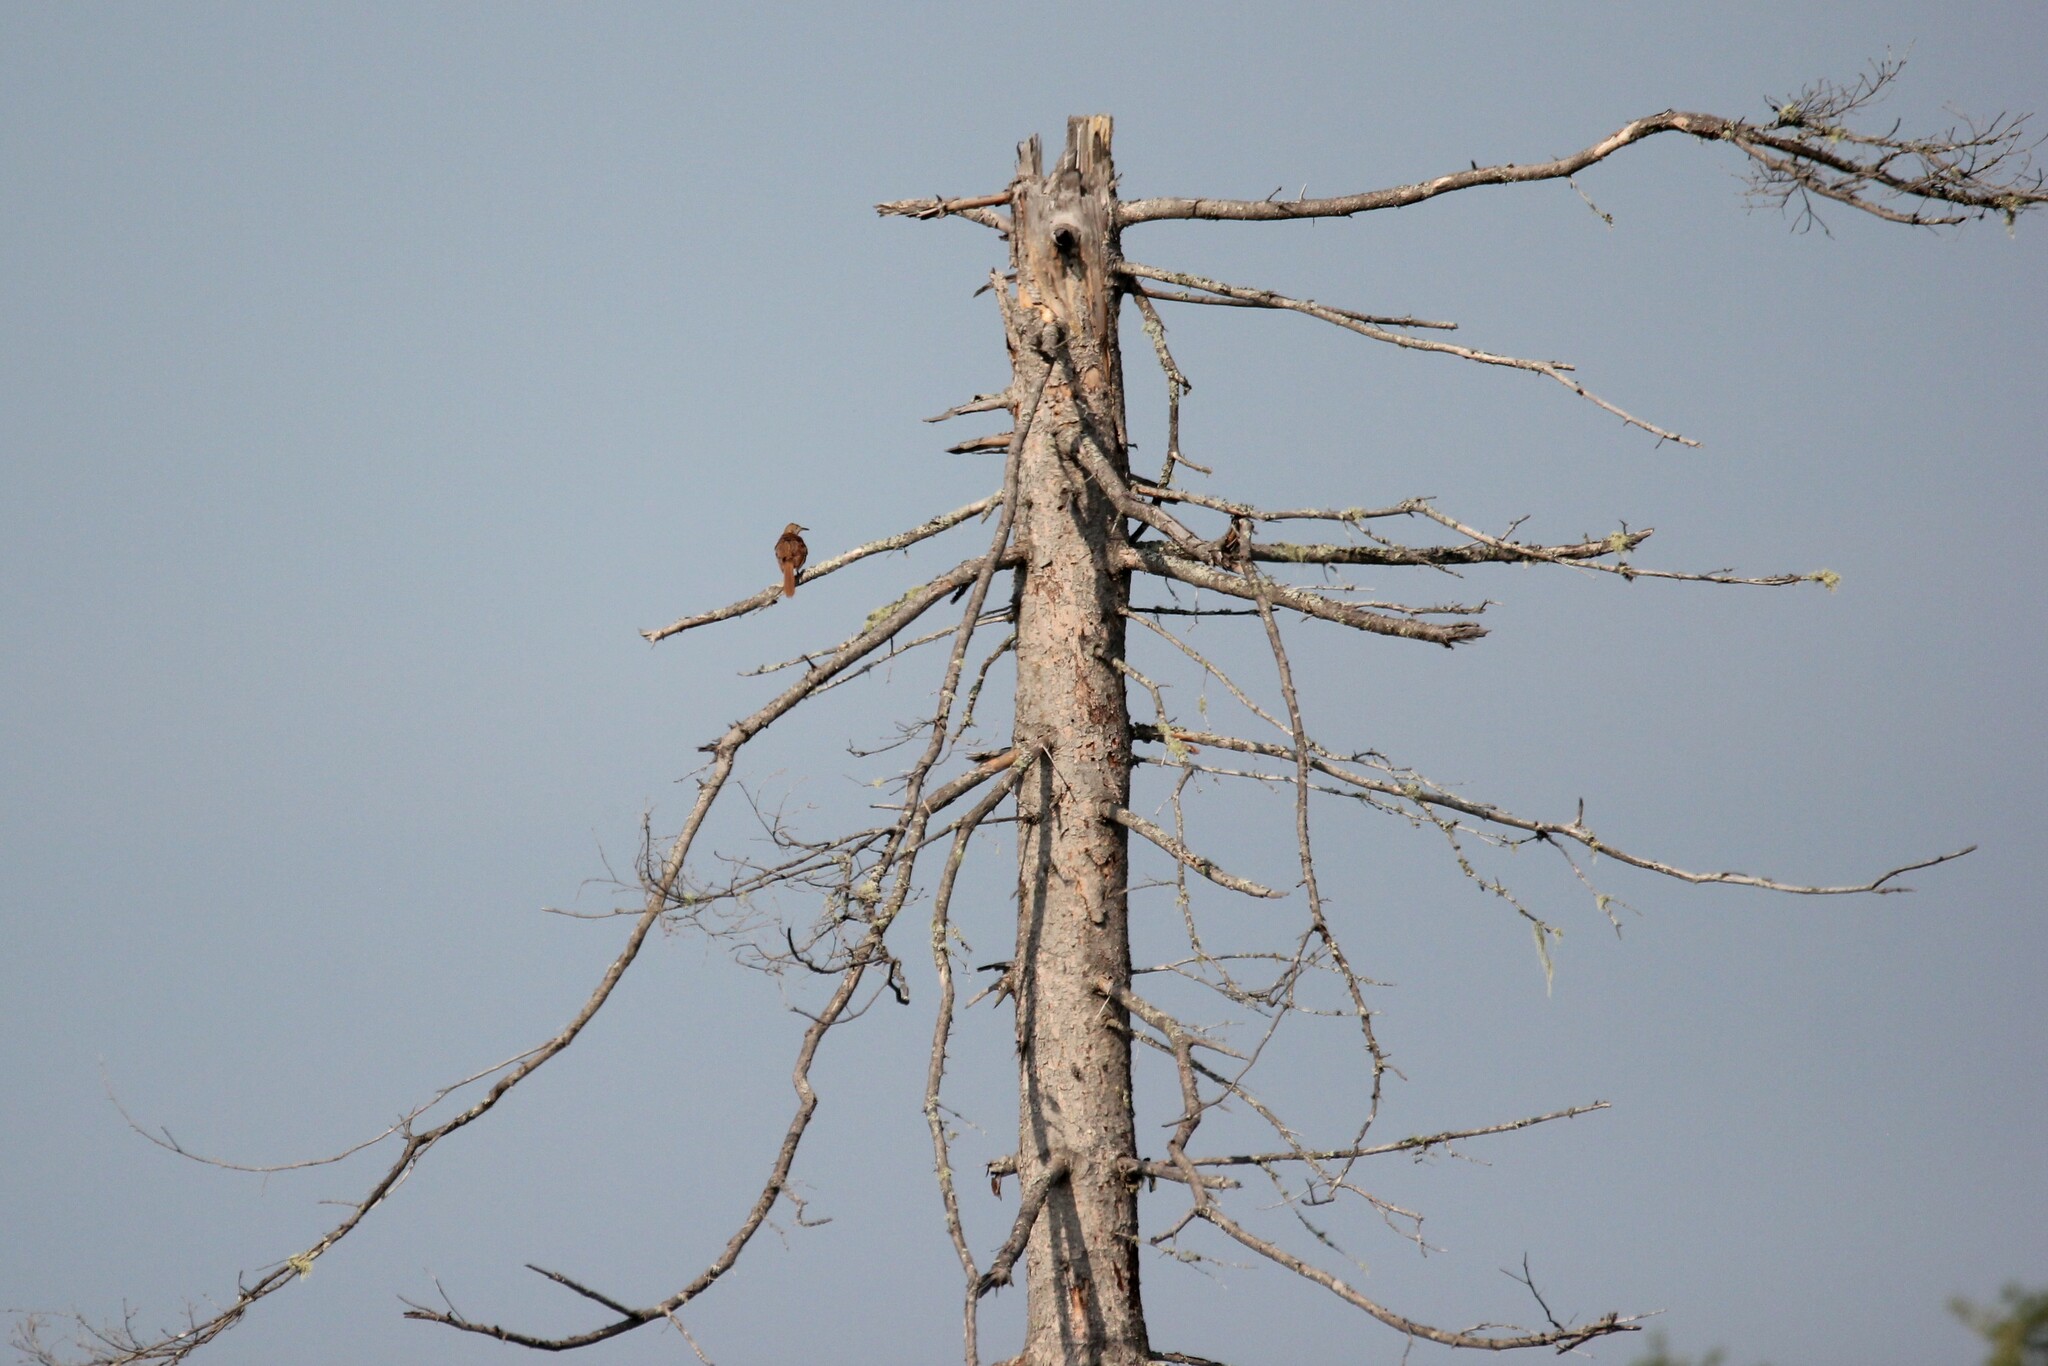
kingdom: Animalia
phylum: Chordata
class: Aves
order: Passeriformes
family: Mimidae
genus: Toxostoma
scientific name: Toxostoma rufum
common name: Brown thrasher
